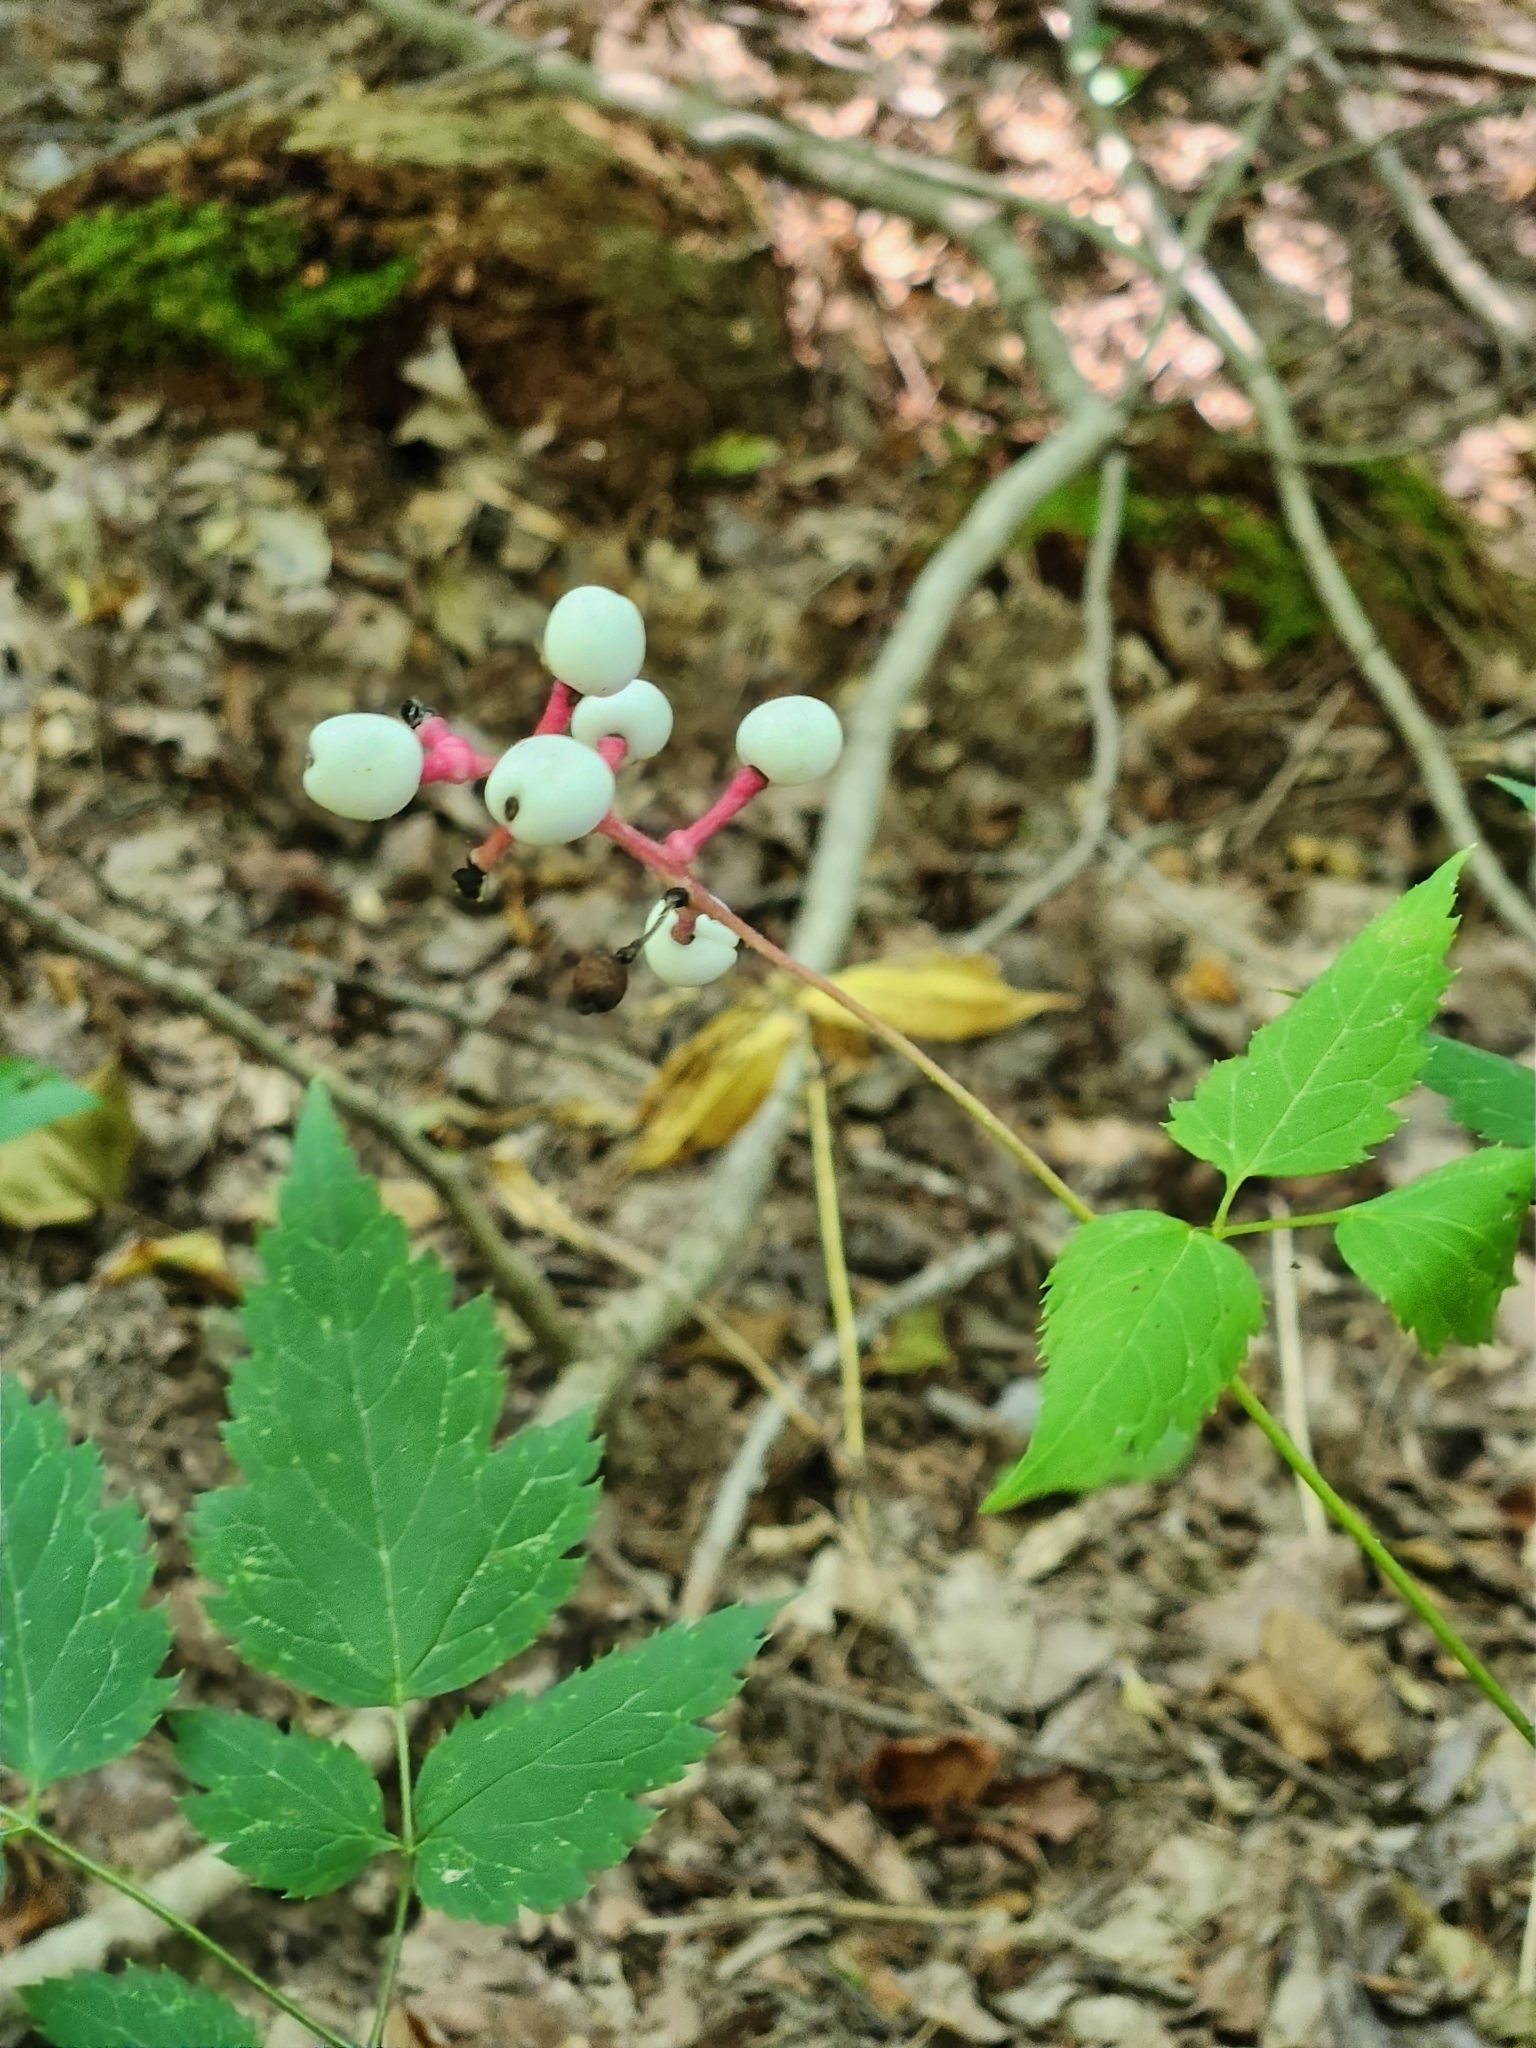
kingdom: Plantae
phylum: Tracheophyta
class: Magnoliopsida
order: Ranunculales
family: Ranunculaceae
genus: Actaea
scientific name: Actaea pachypoda
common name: Doll's-eyes
